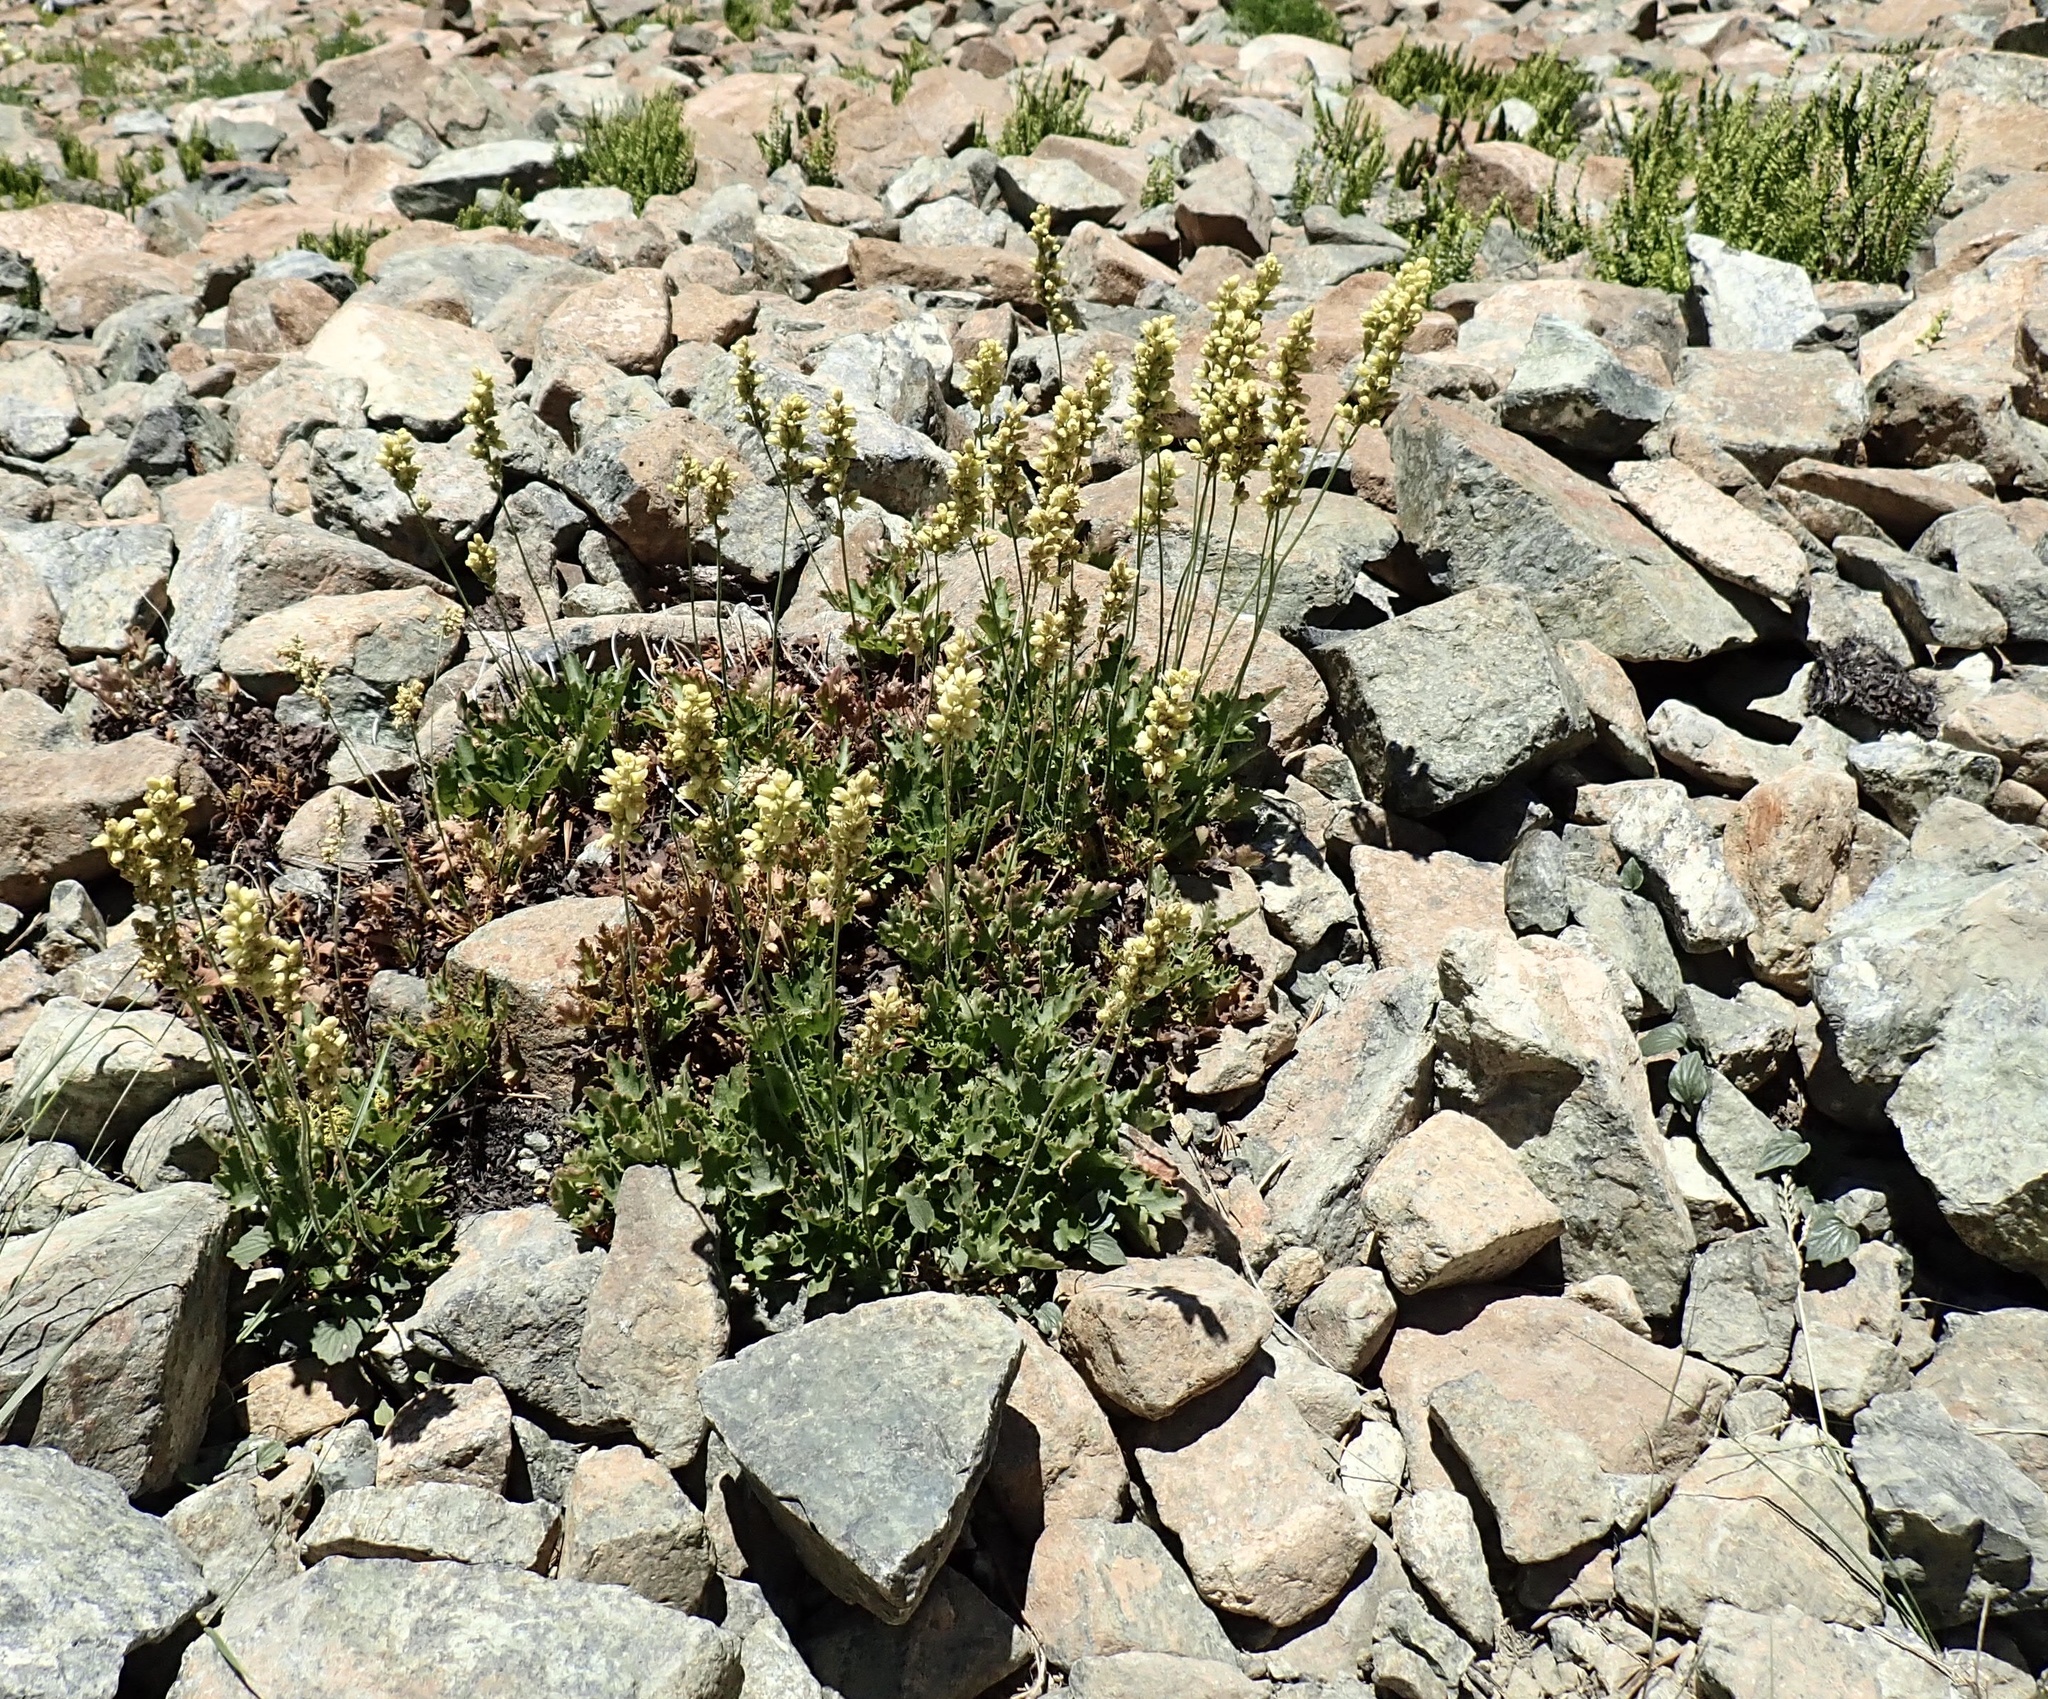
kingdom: Plantae
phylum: Tracheophyta
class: Magnoliopsida
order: Saxifragales
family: Saxifragaceae
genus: Heuchera
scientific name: Heuchera cylindrica
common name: Mat alumroot
